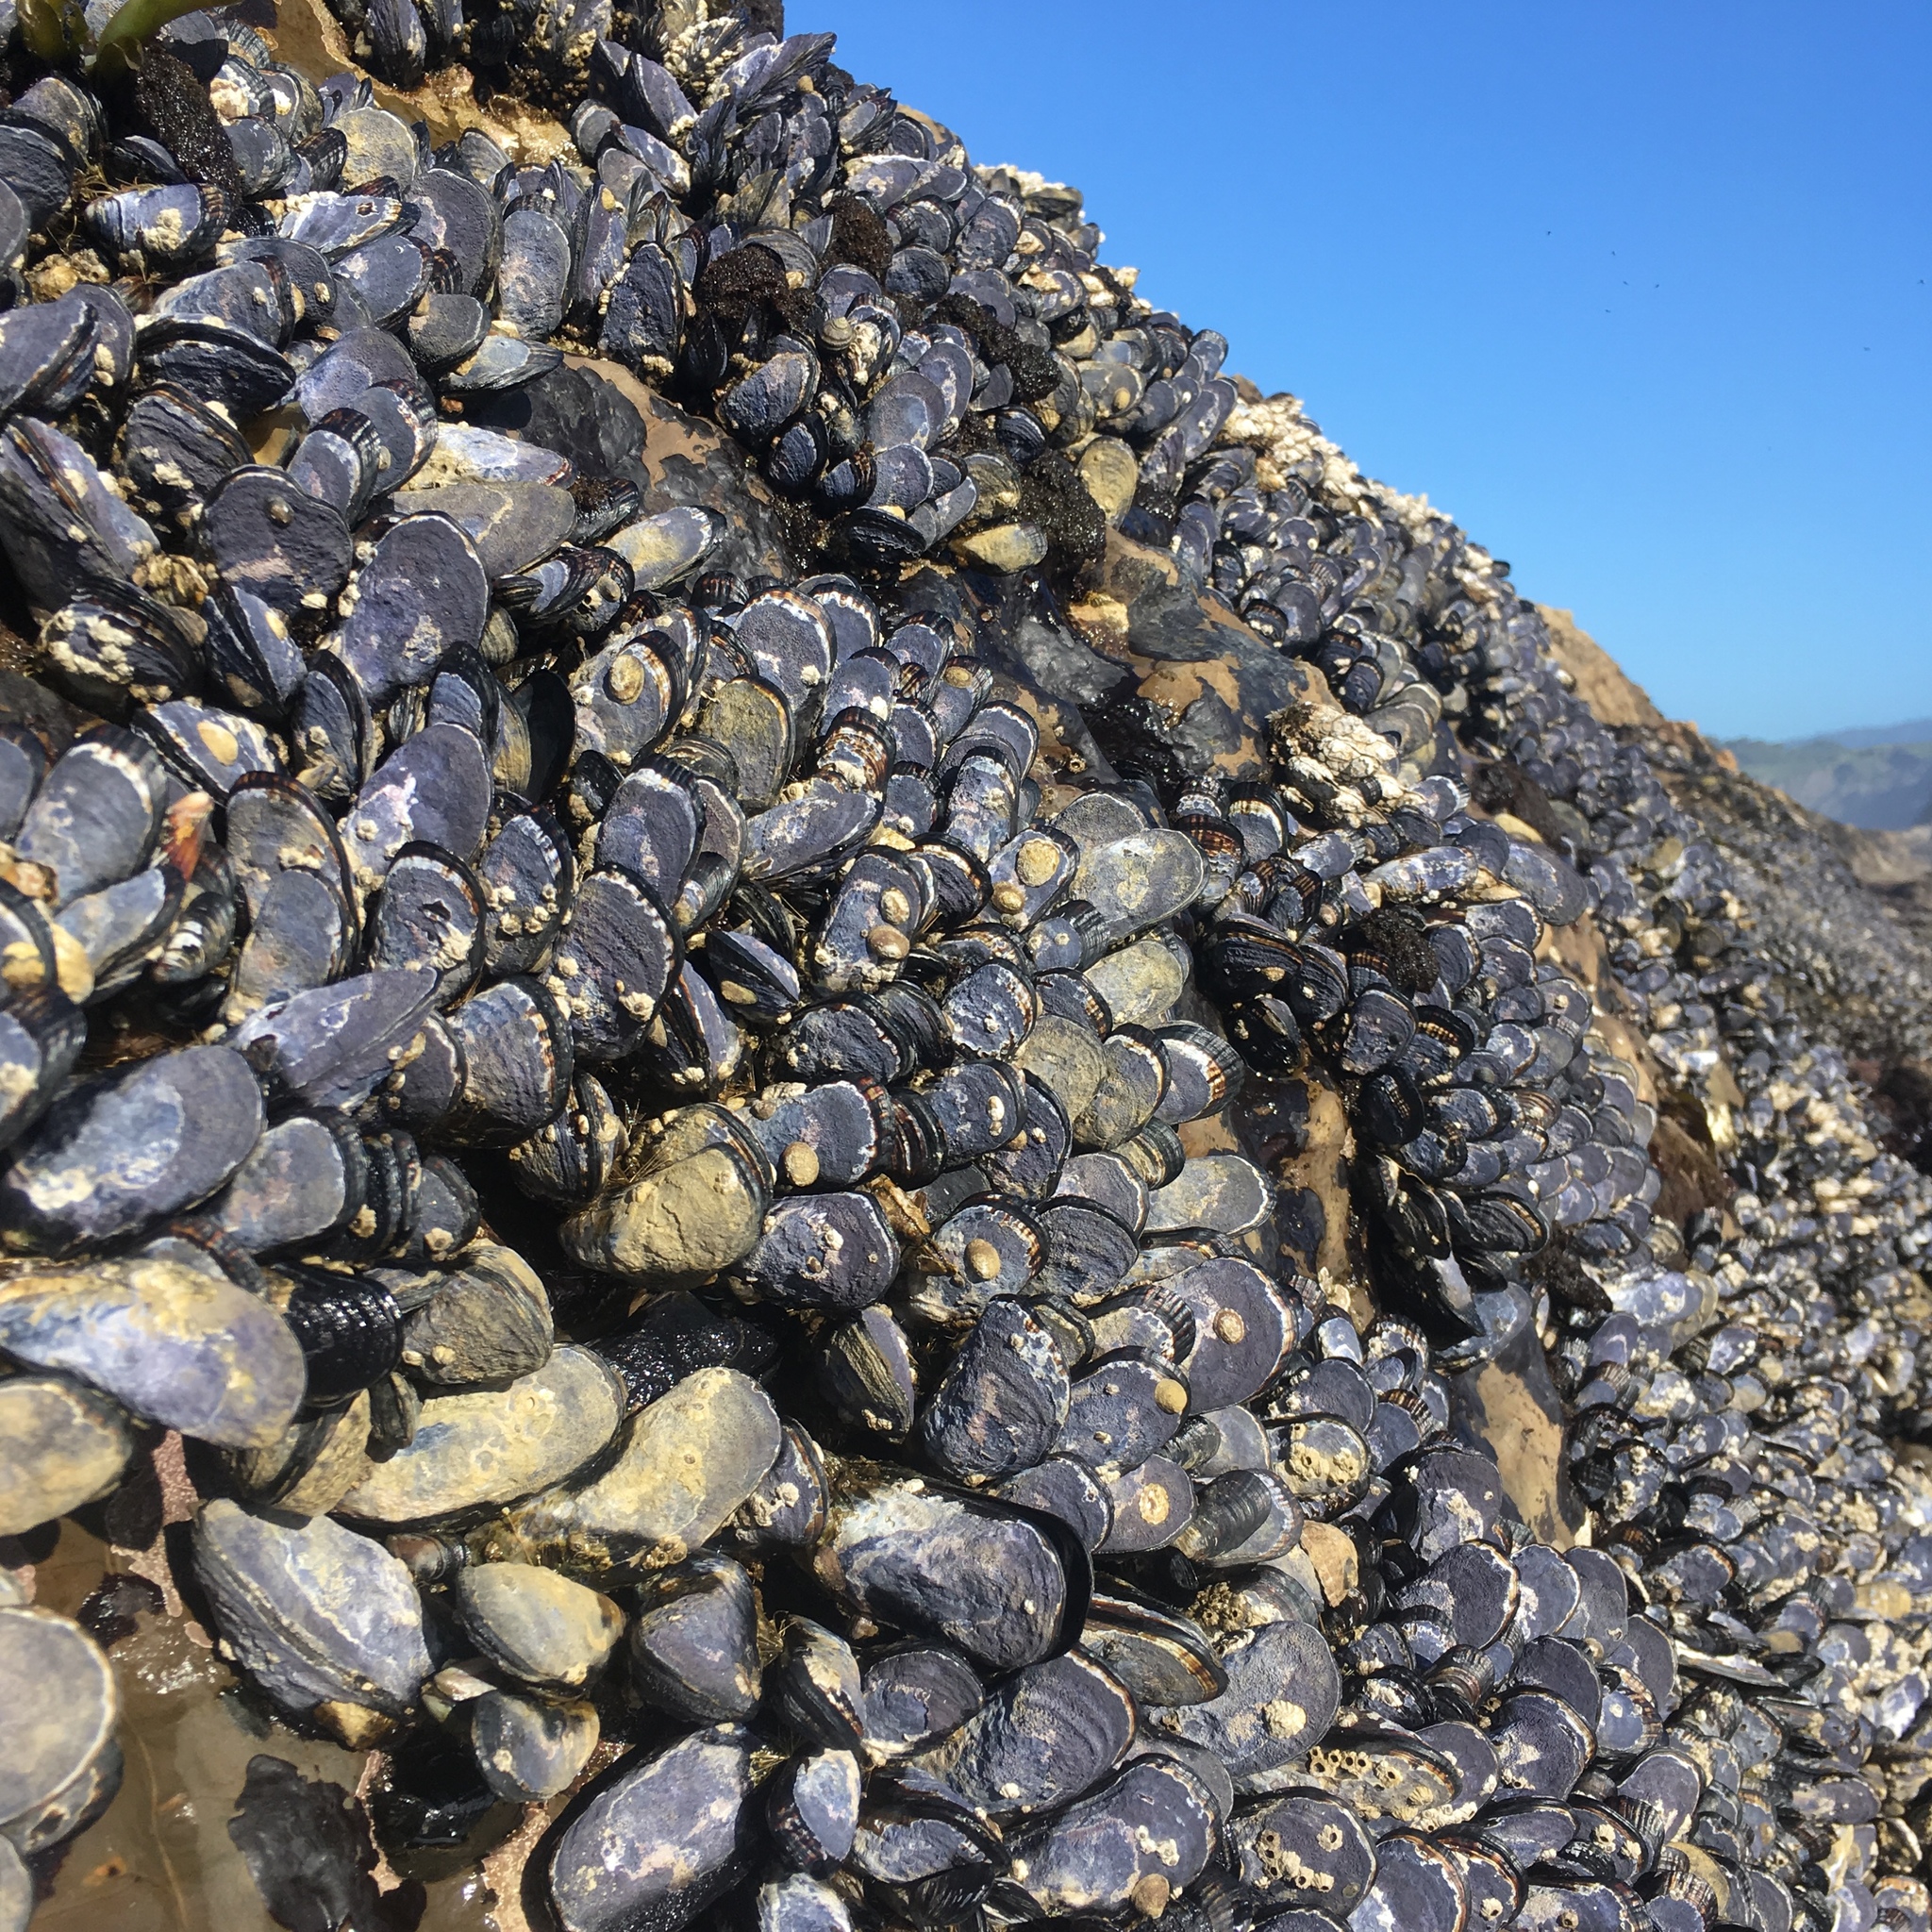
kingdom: Animalia
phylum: Mollusca
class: Bivalvia
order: Mytilida
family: Mytilidae
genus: Mytilus
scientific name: Mytilus californianus
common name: California mussel
